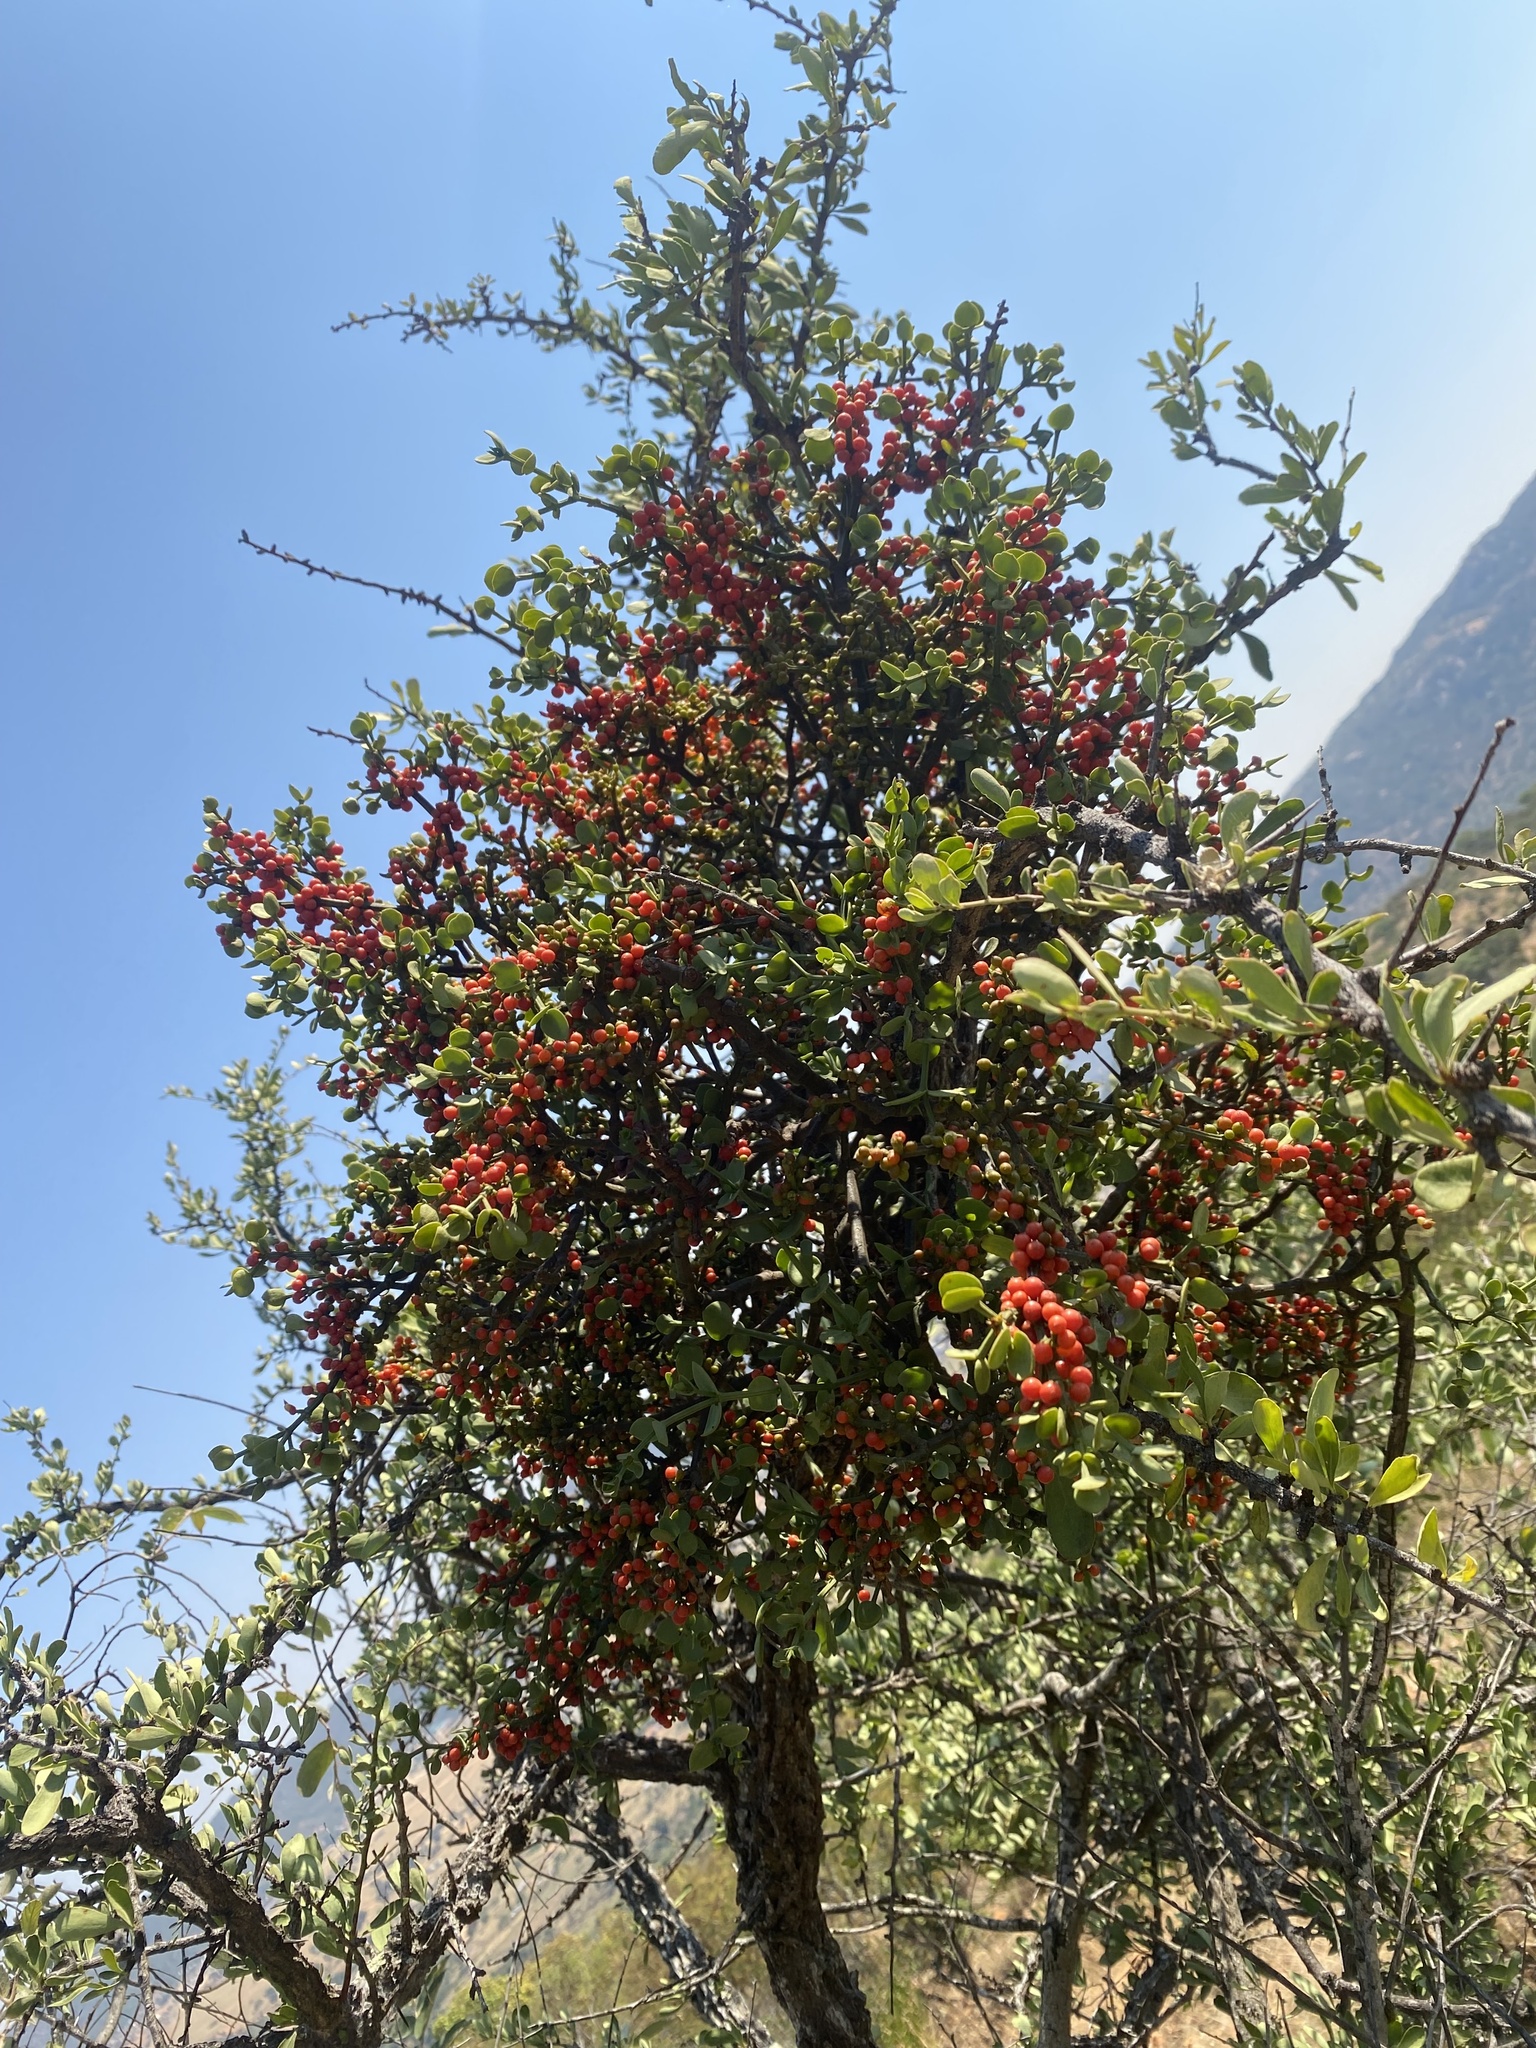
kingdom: Plantae
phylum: Tracheophyta
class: Magnoliopsida
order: Santalales
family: Viscaceae
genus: Viscum
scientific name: Viscum rotundifolium
